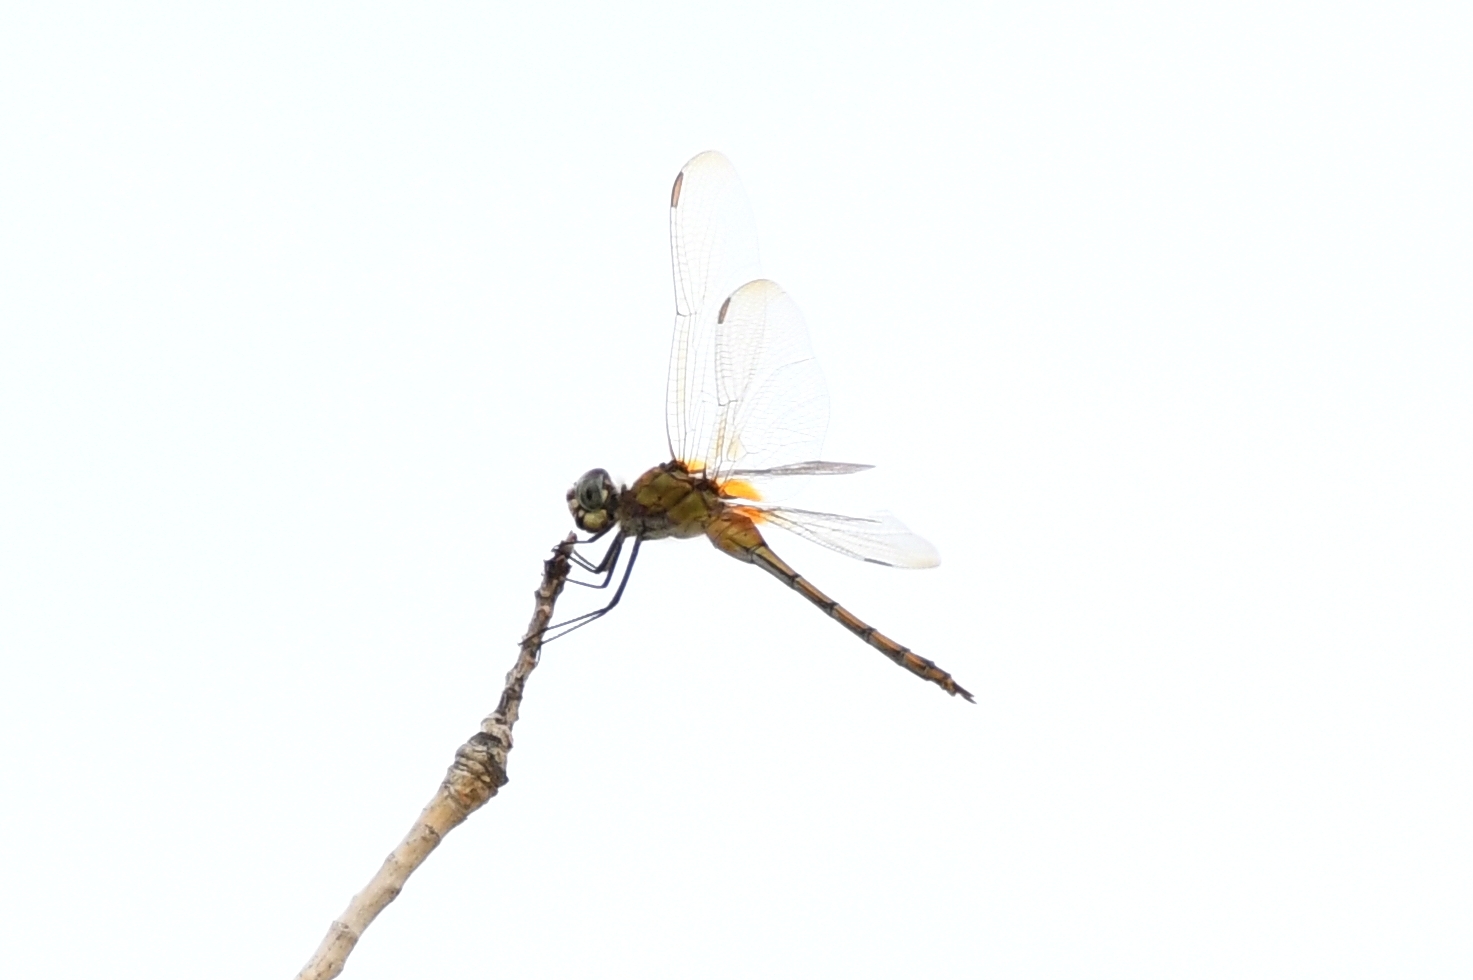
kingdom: Animalia
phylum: Arthropoda
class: Insecta
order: Odonata
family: Libellulidae
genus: Brachymesia
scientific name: Brachymesia gravida
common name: Four-spotted pennant
